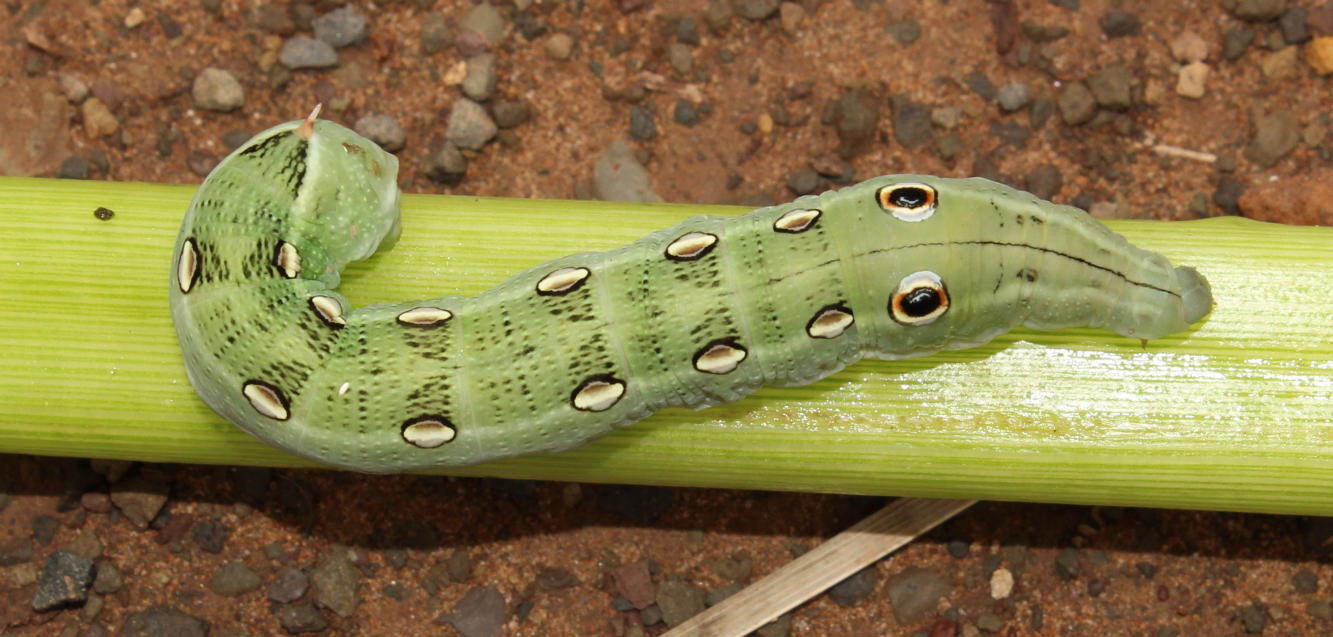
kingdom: Animalia
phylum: Arthropoda
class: Insecta
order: Lepidoptera
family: Sphingidae
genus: Theretra
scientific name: Theretra cajus
